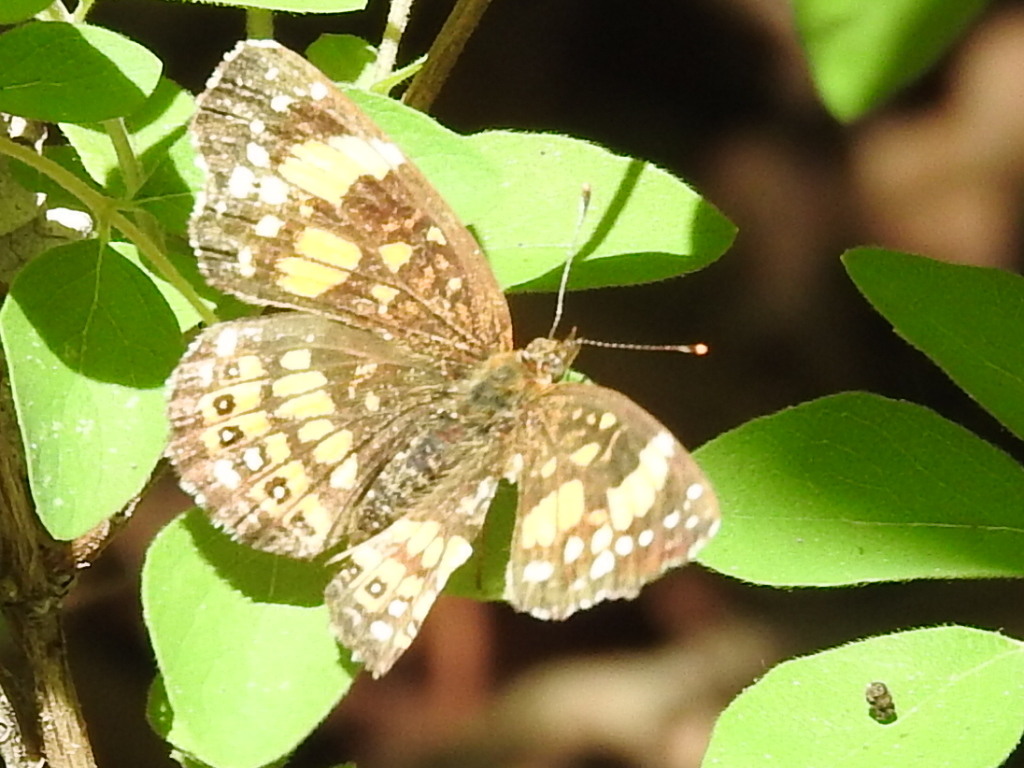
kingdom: Animalia
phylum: Arthropoda
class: Insecta
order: Lepidoptera
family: Nymphalidae
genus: Chlosyne
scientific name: Chlosyne nycteis
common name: Silvery checkerspot
